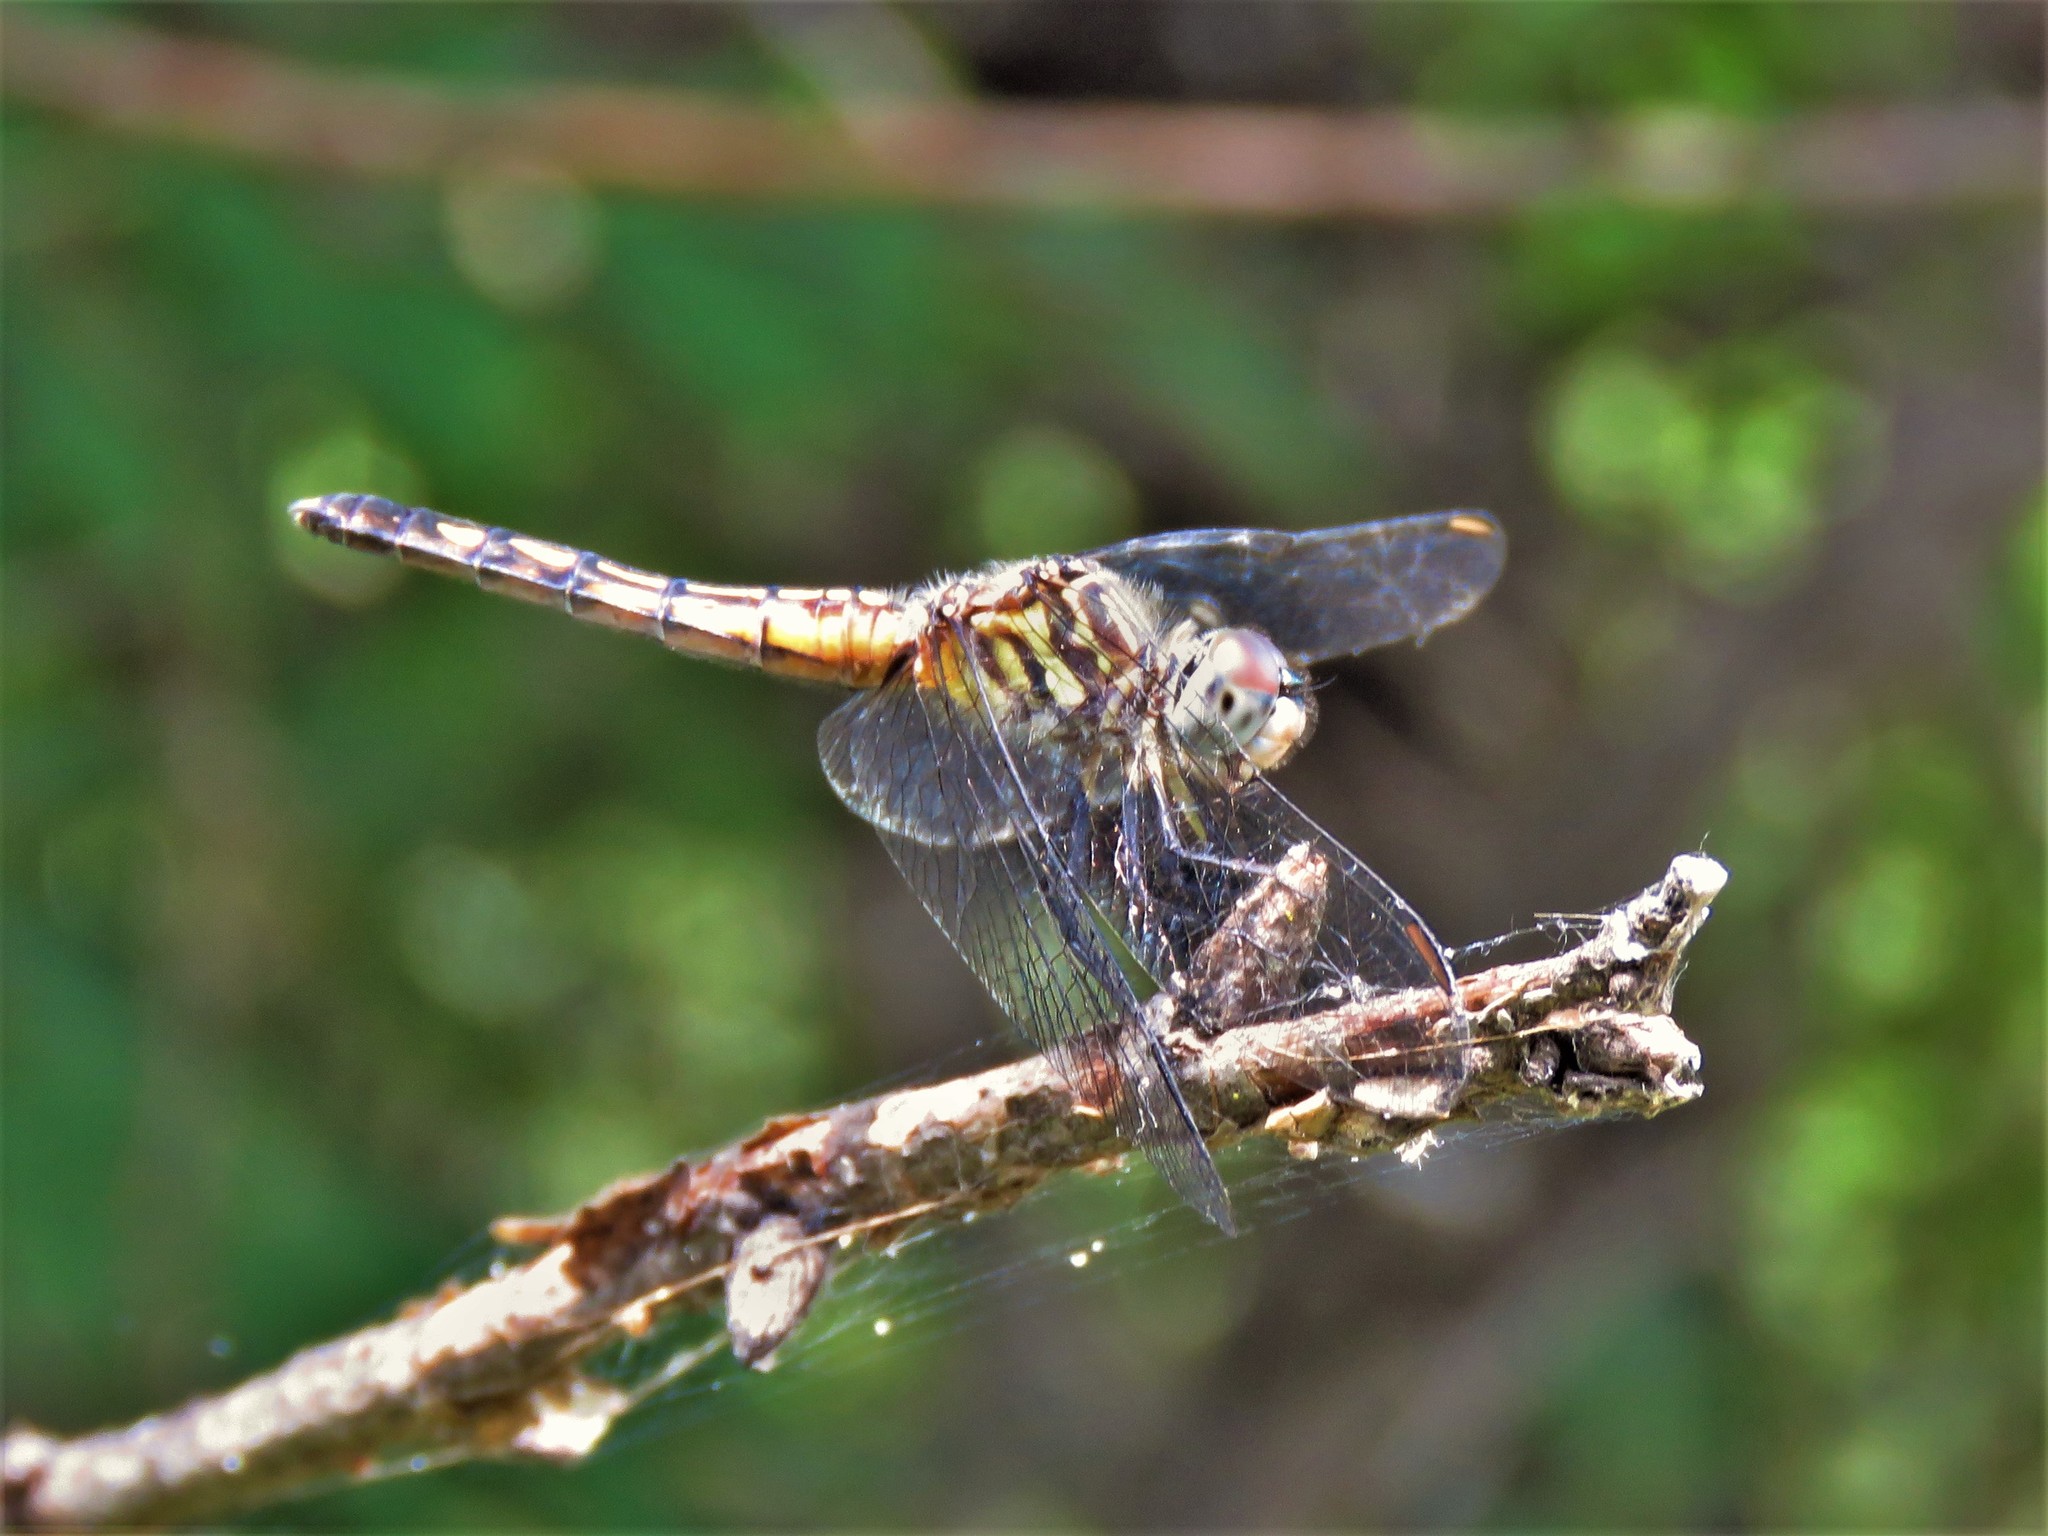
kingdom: Animalia
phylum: Arthropoda
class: Insecta
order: Odonata
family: Libellulidae
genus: Pachydiplax
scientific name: Pachydiplax longipennis
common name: Blue dasher
